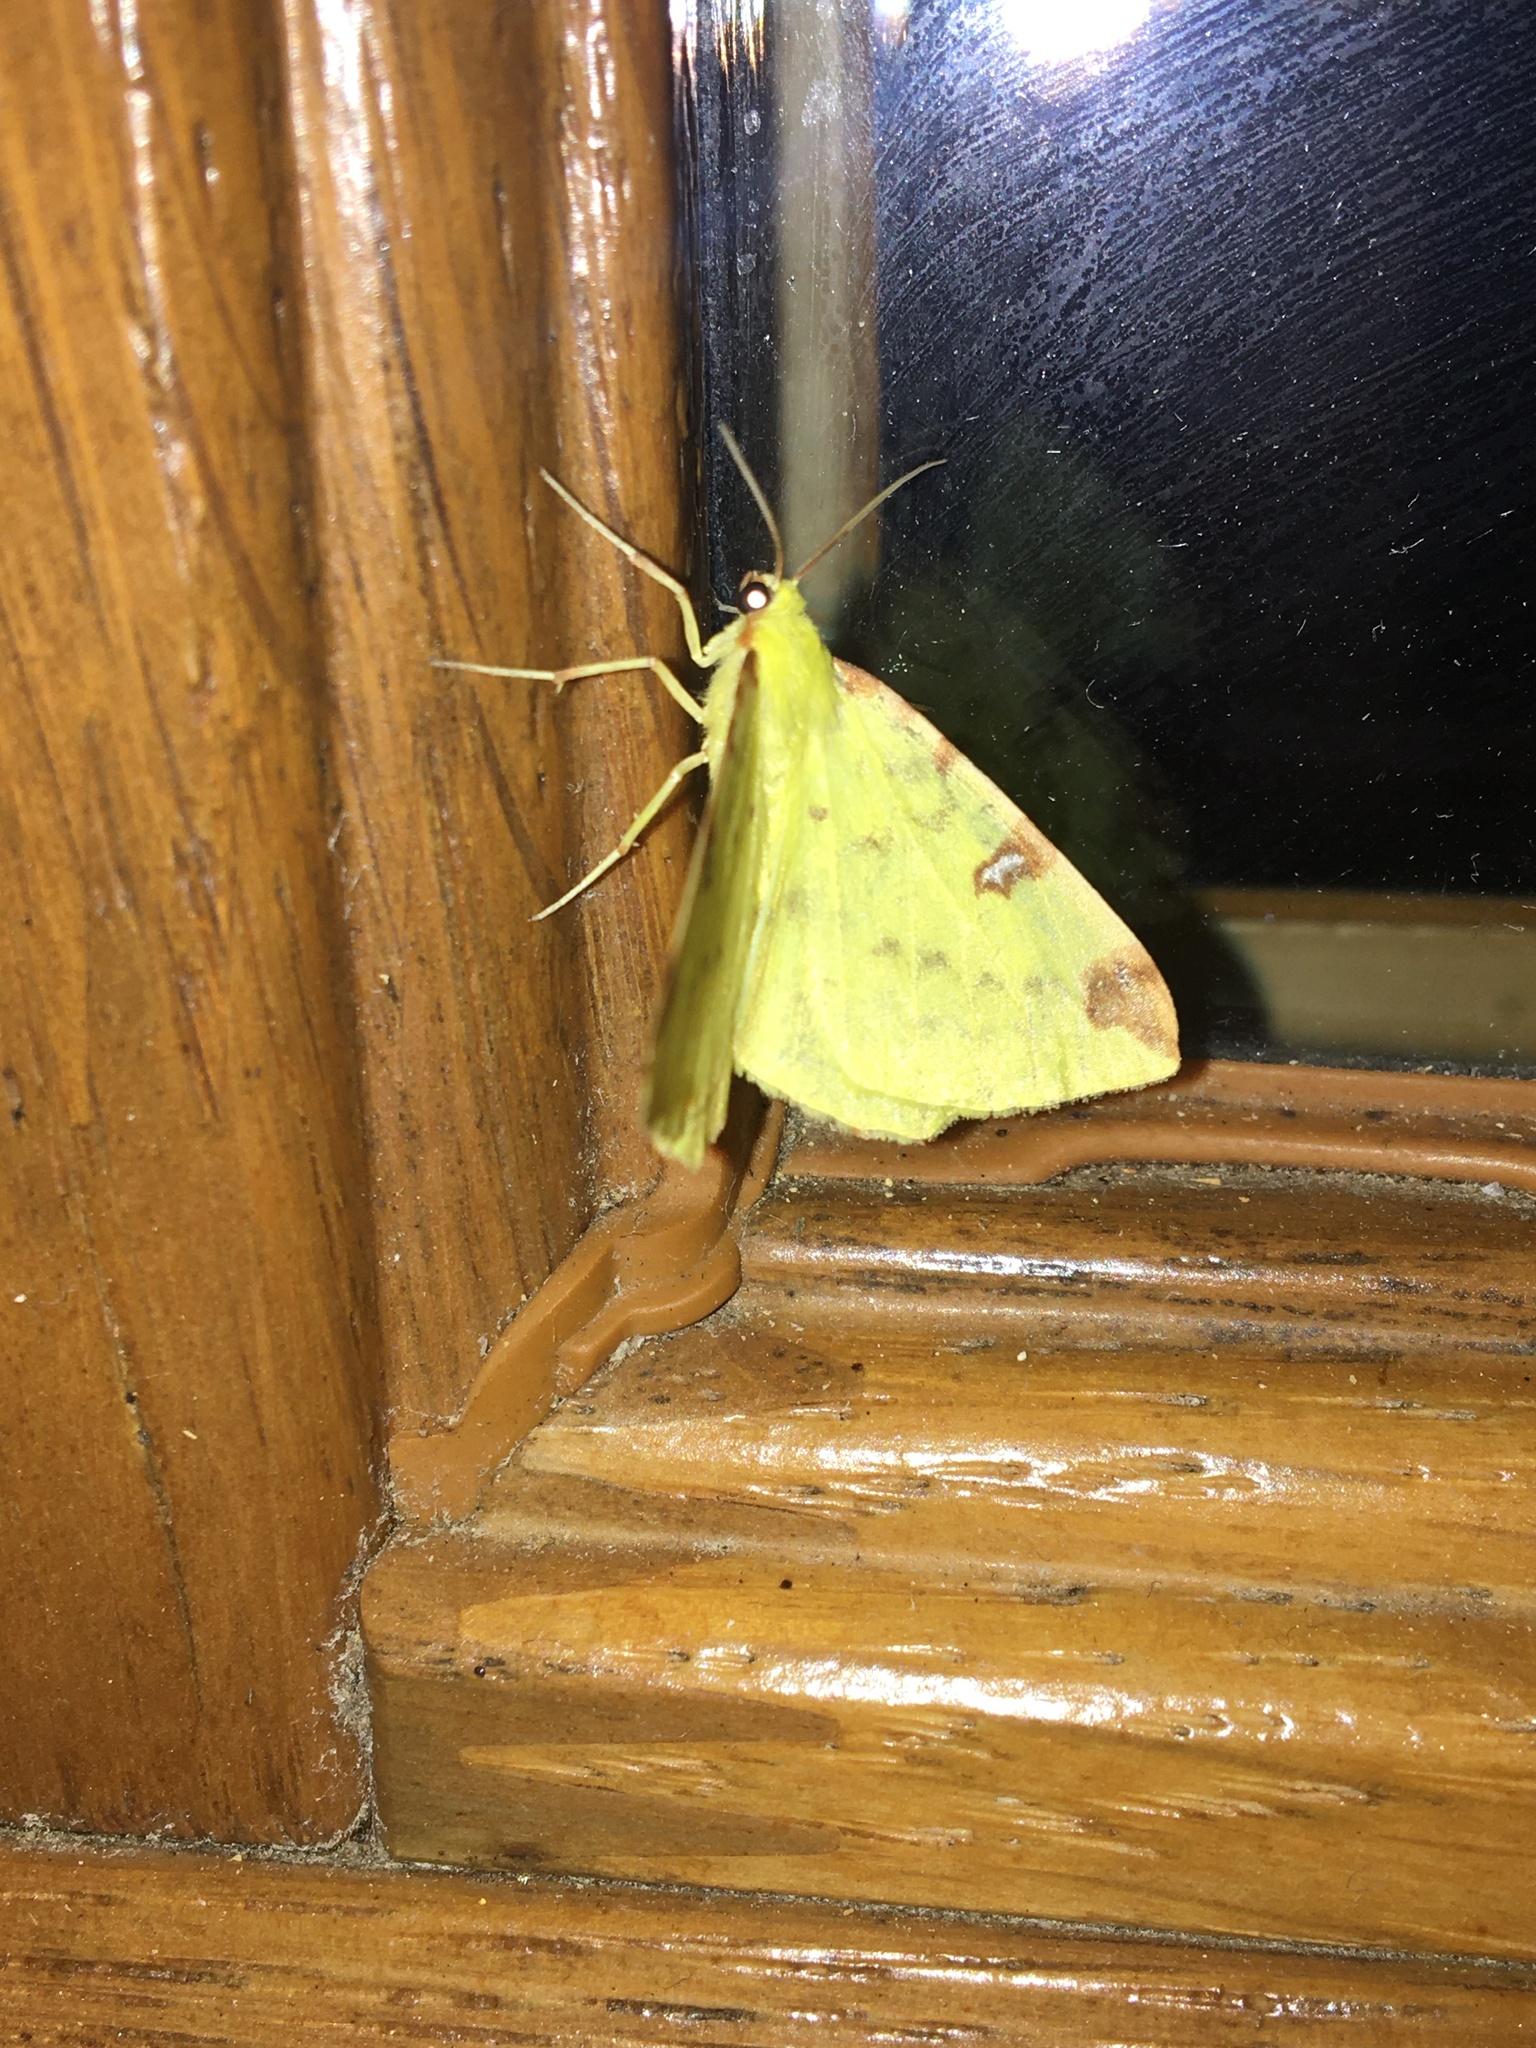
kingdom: Animalia
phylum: Arthropoda
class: Insecta
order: Lepidoptera
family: Geometridae
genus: Opisthograptis
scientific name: Opisthograptis luteolata
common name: Brimstone moth
